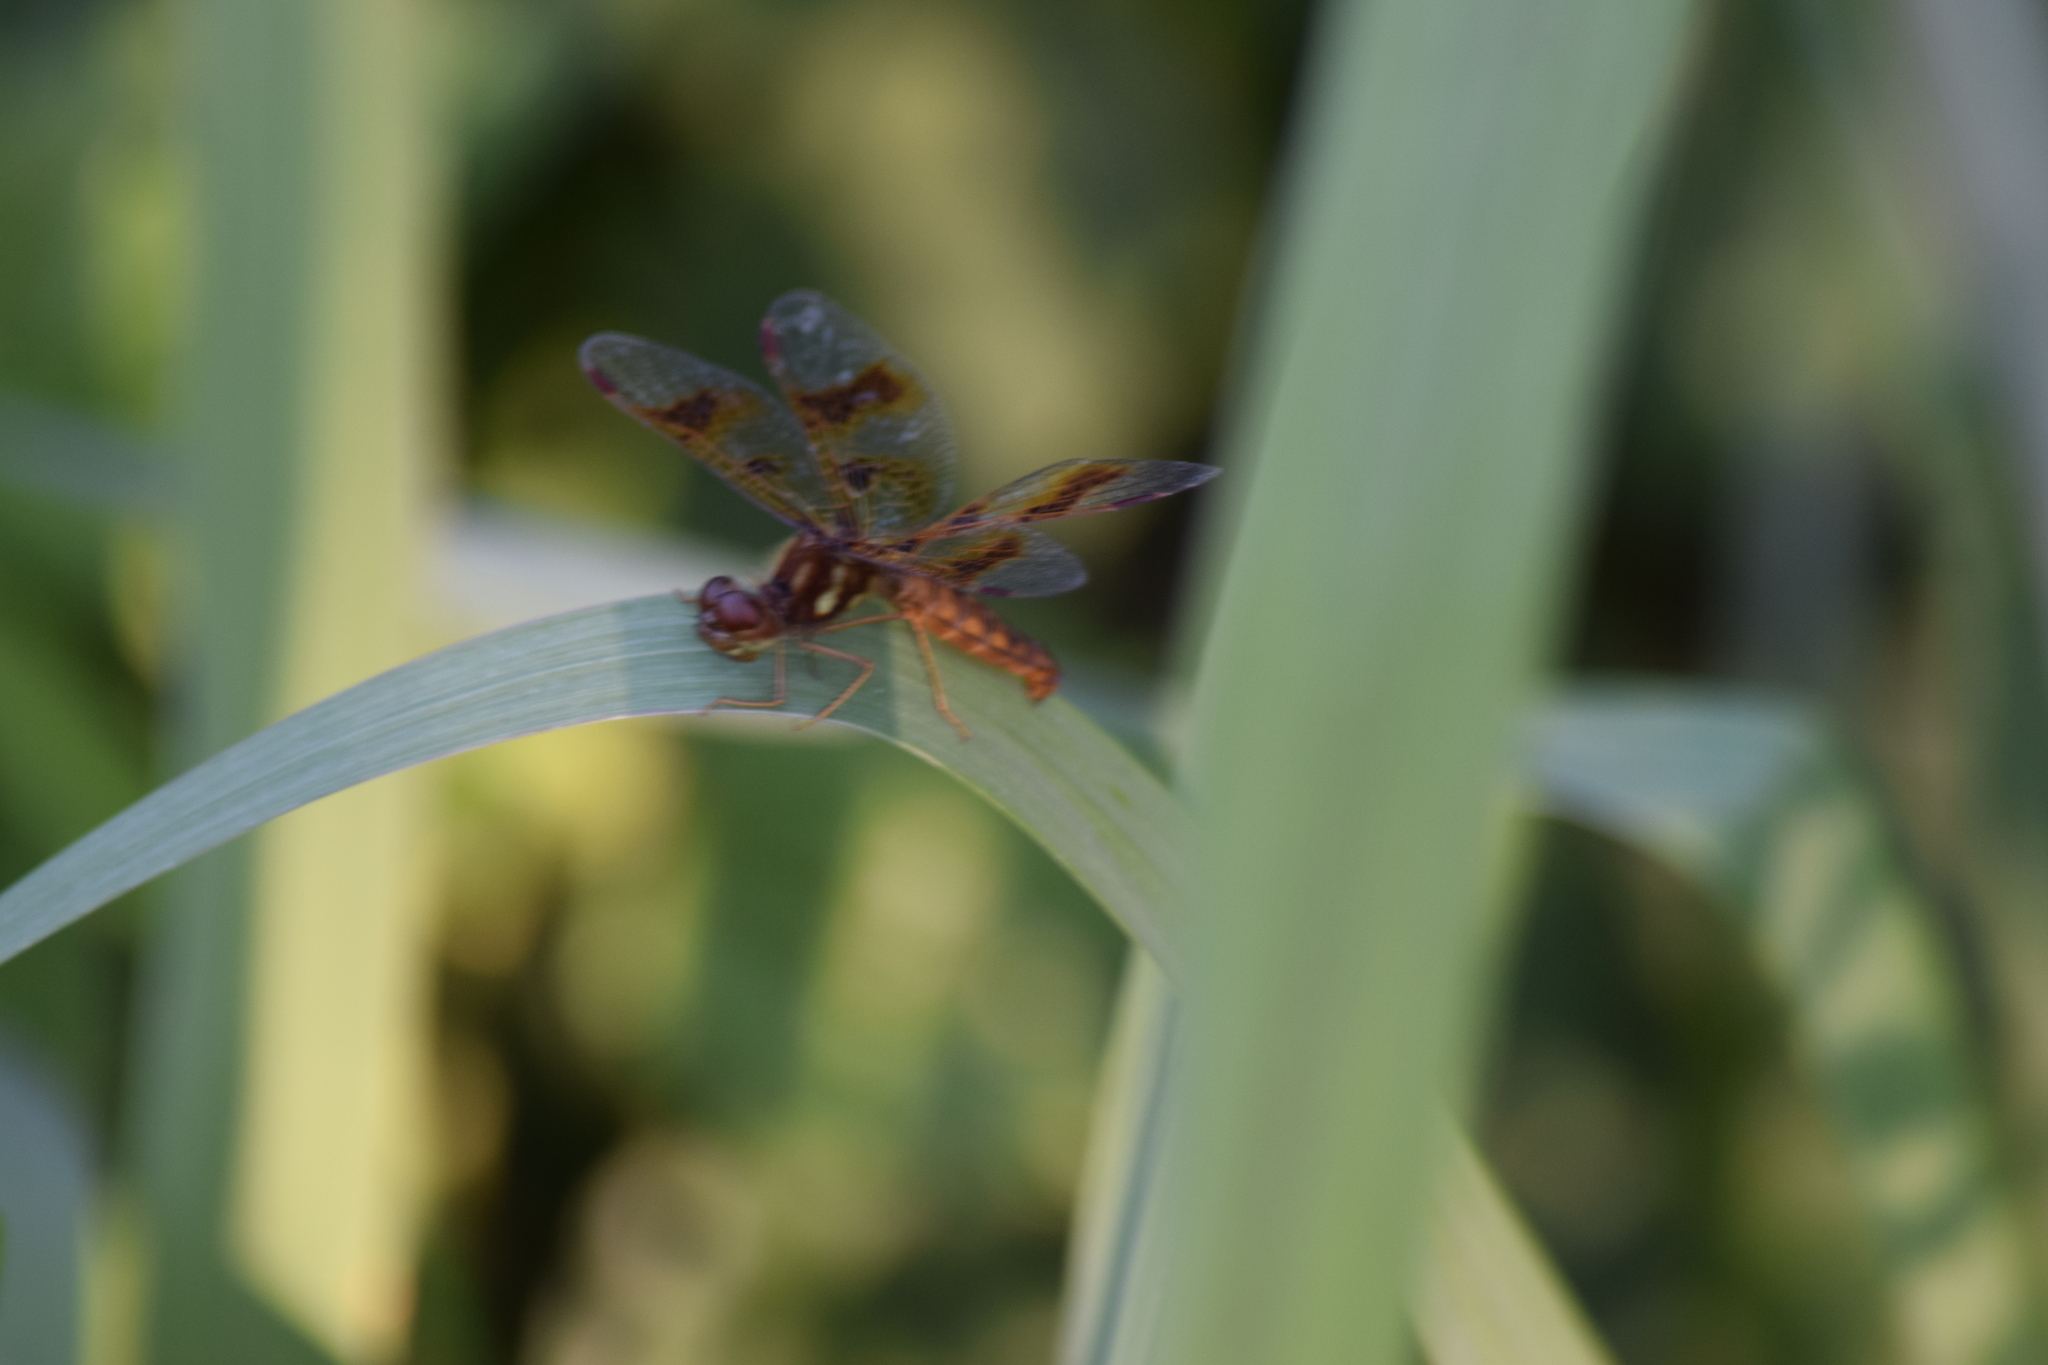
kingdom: Animalia
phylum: Arthropoda
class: Insecta
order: Odonata
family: Libellulidae
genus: Perithemis
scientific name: Perithemis tenera
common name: Eastern amberwing
